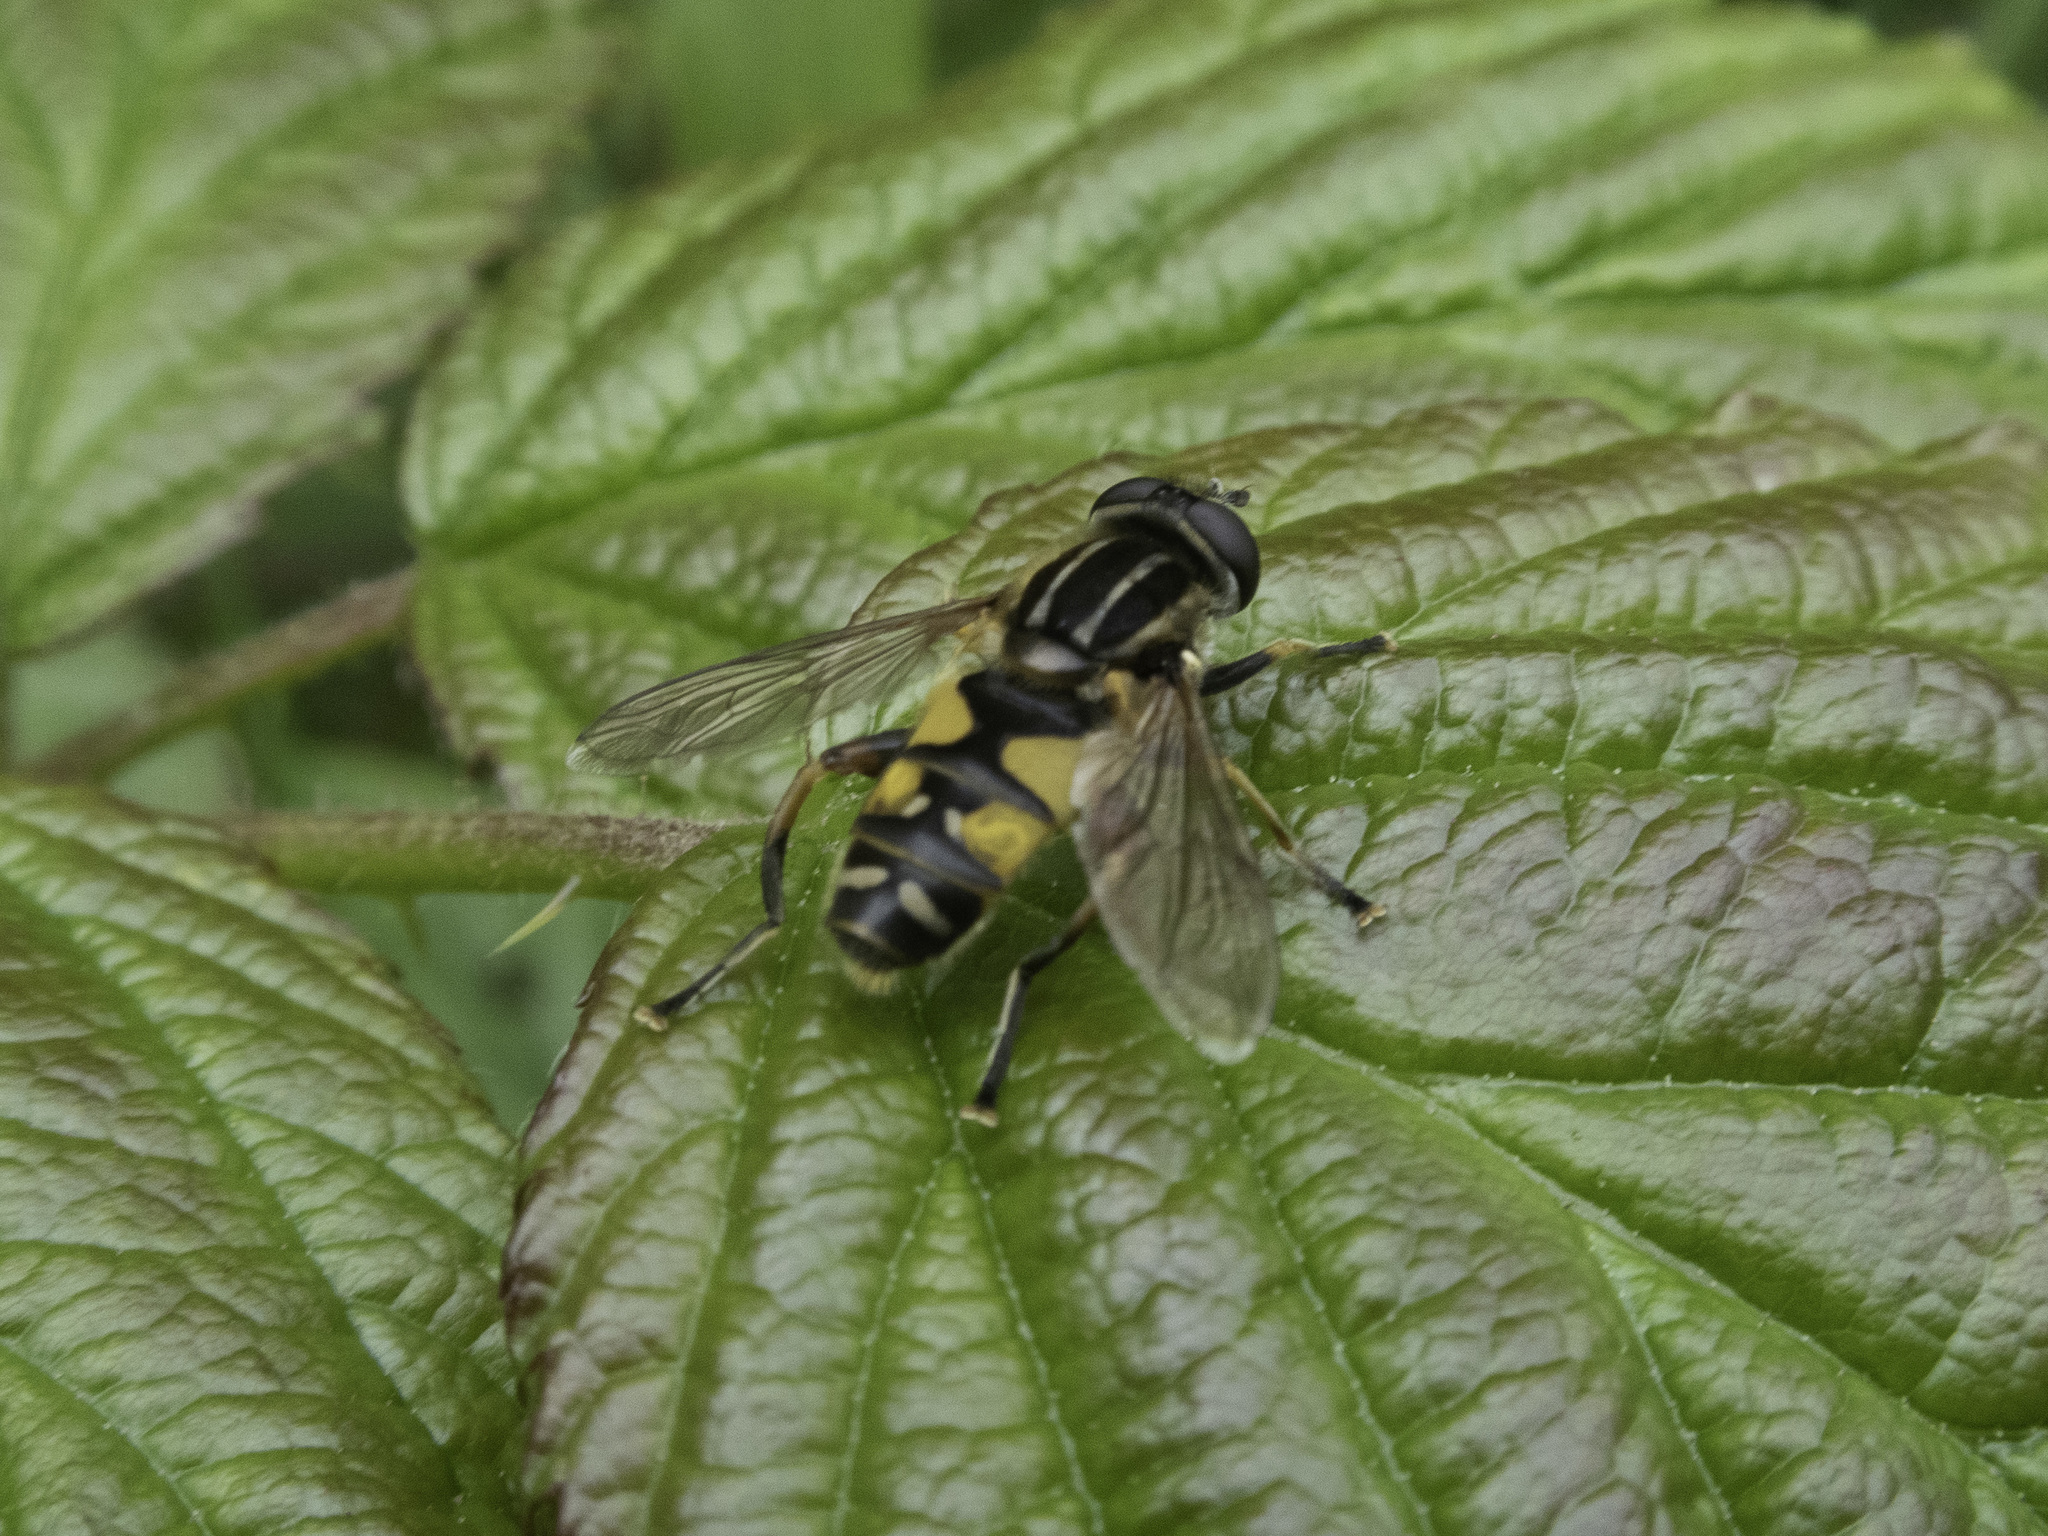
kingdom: Animalia
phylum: Arthropoda
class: Insecta
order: Diptera
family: Syrphidae
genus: Helophilus
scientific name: Helophilus pendulus
